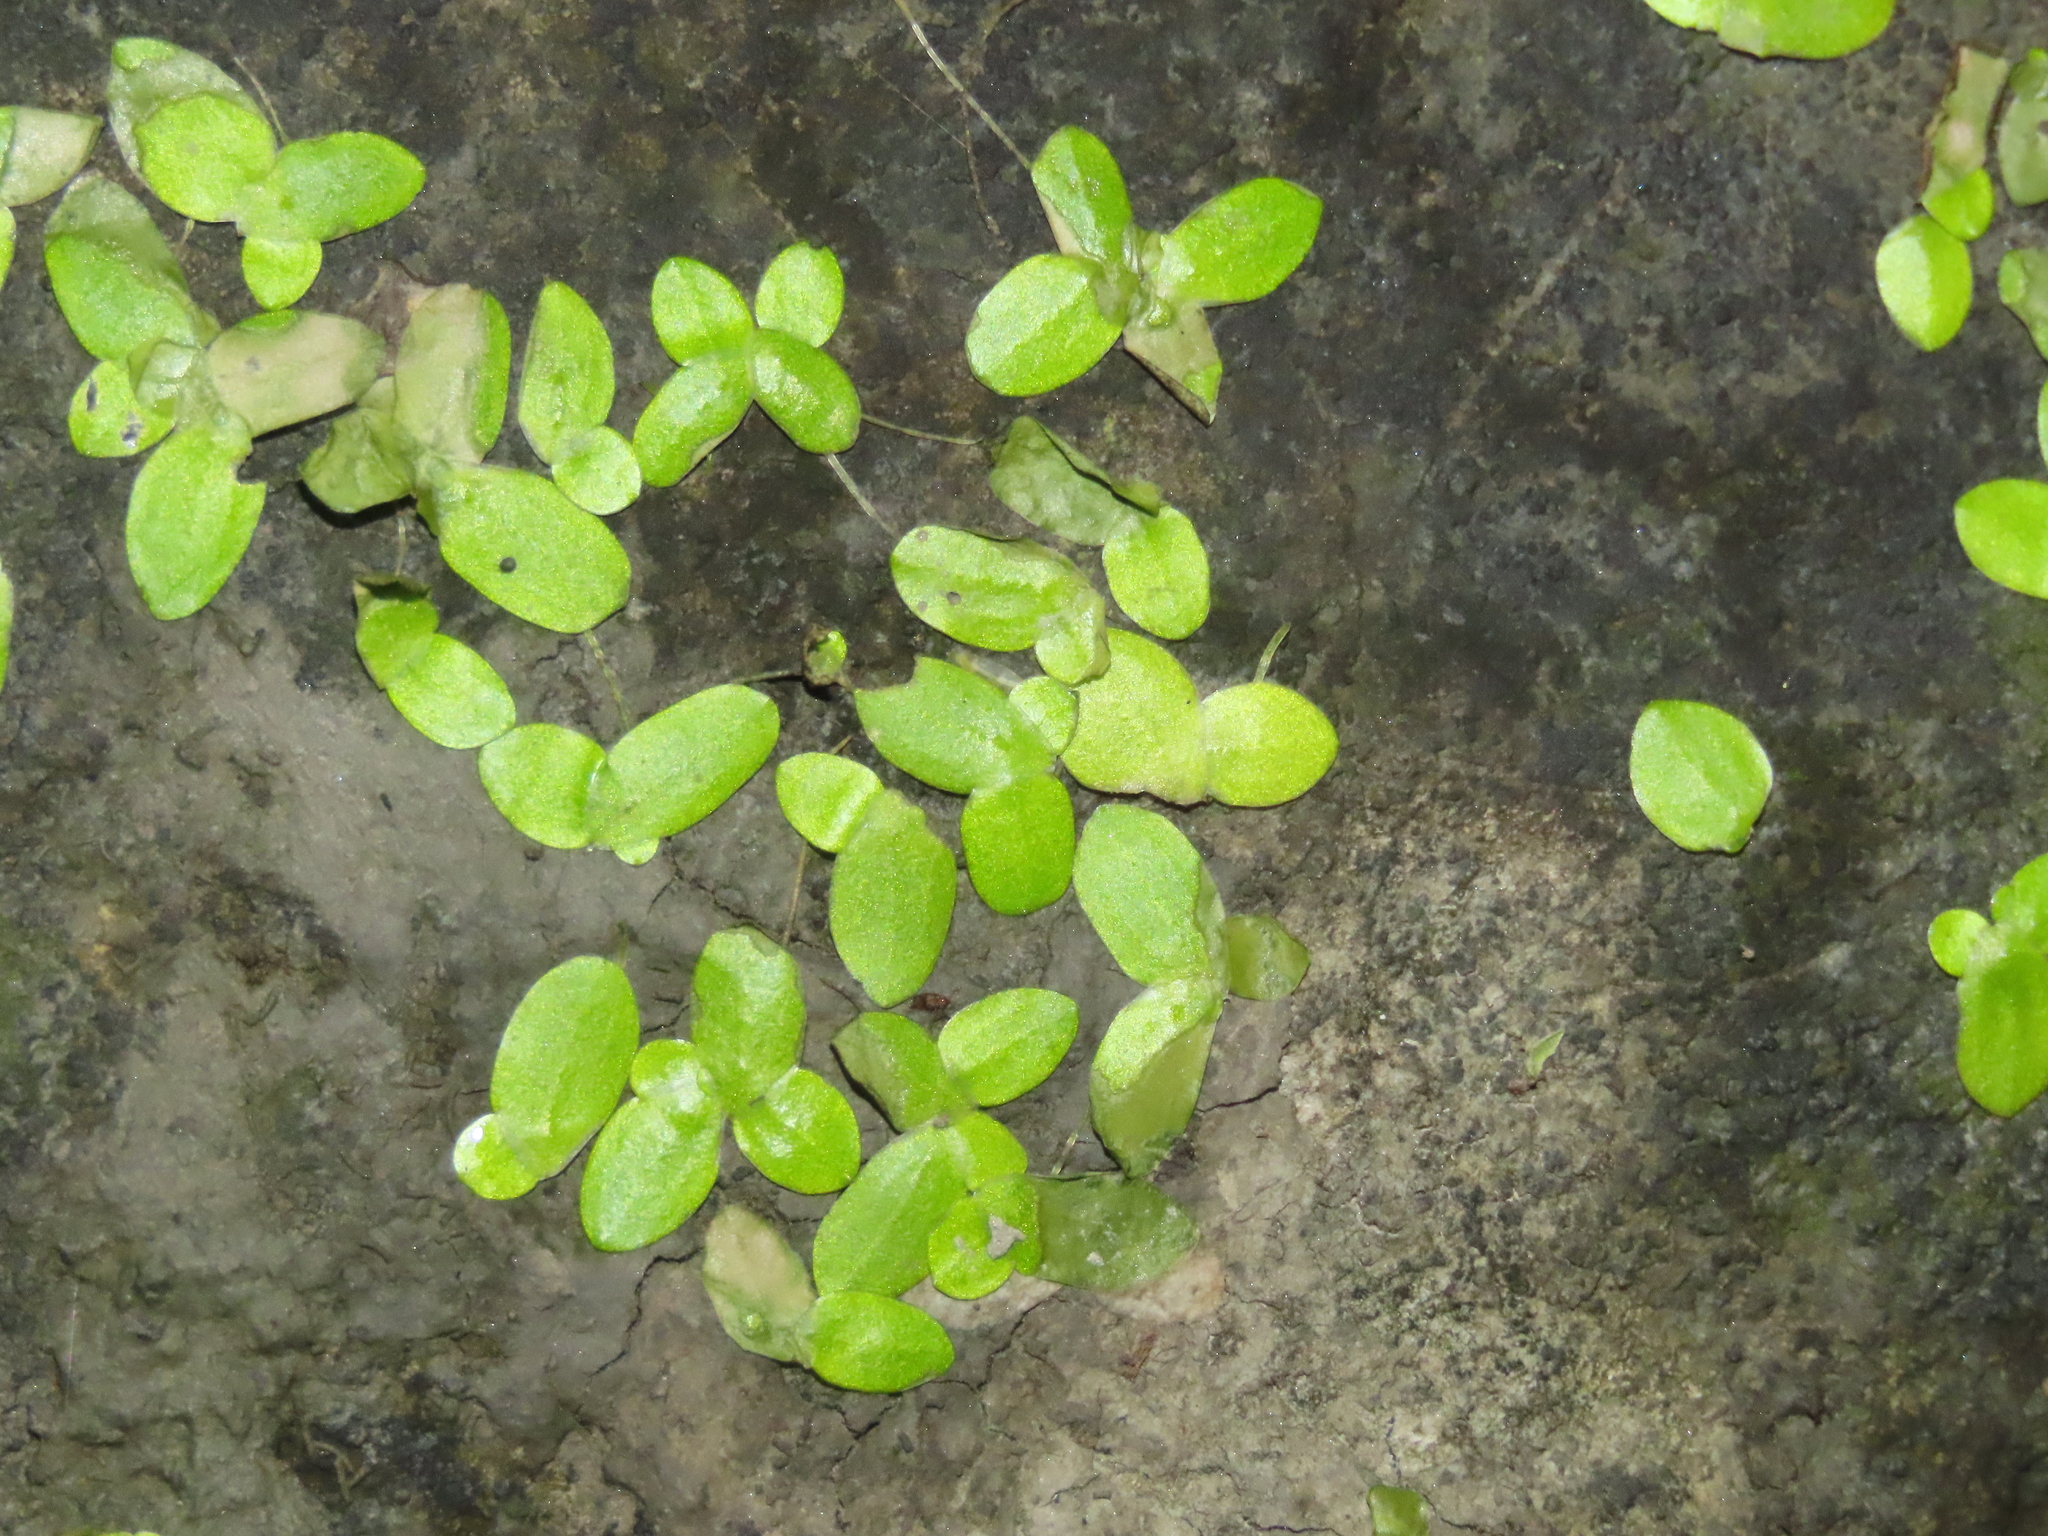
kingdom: Plantae
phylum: Tracheophyta
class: Liliopsida
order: Alismatales
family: Araceae
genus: Lemna
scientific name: Lemna aequinoctialis
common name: Duckweed
